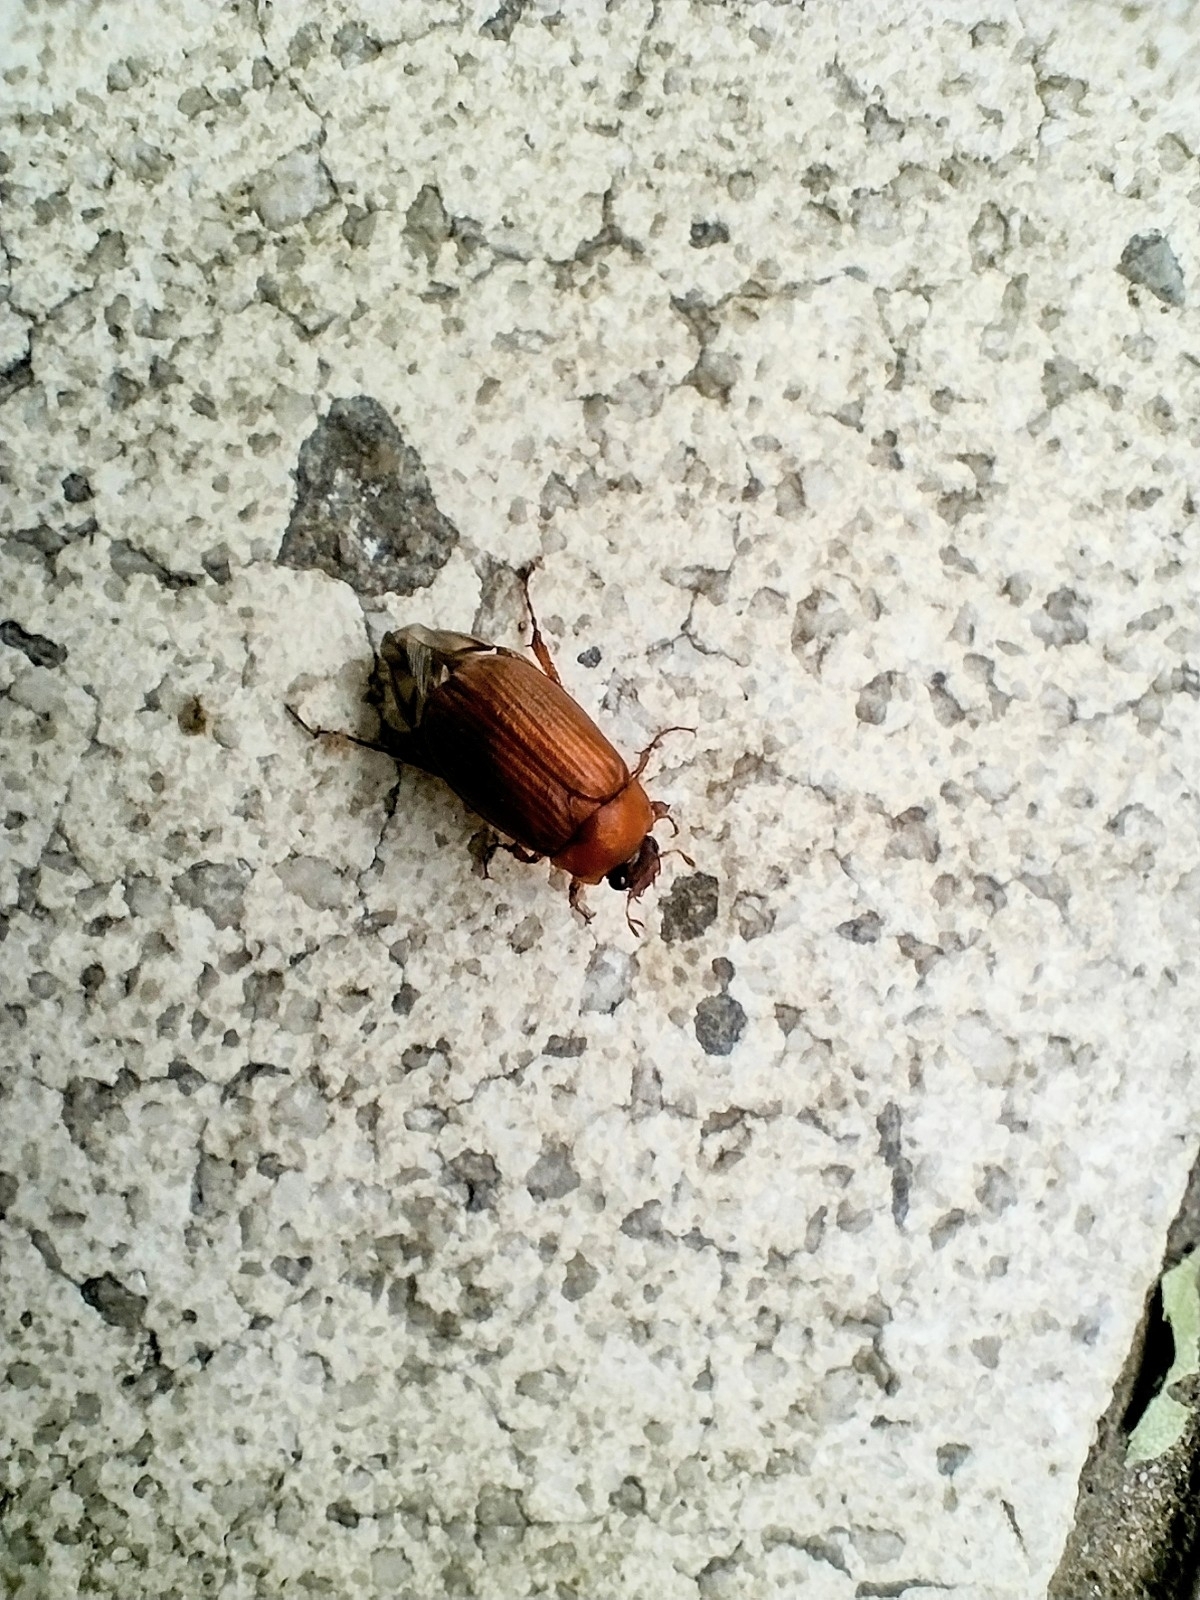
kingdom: Animalia
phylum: Arthropoda
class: Insecta
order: Coleoptera
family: Scarabaeidae
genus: Serica
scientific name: Serica brunnea
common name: Brown chafer
